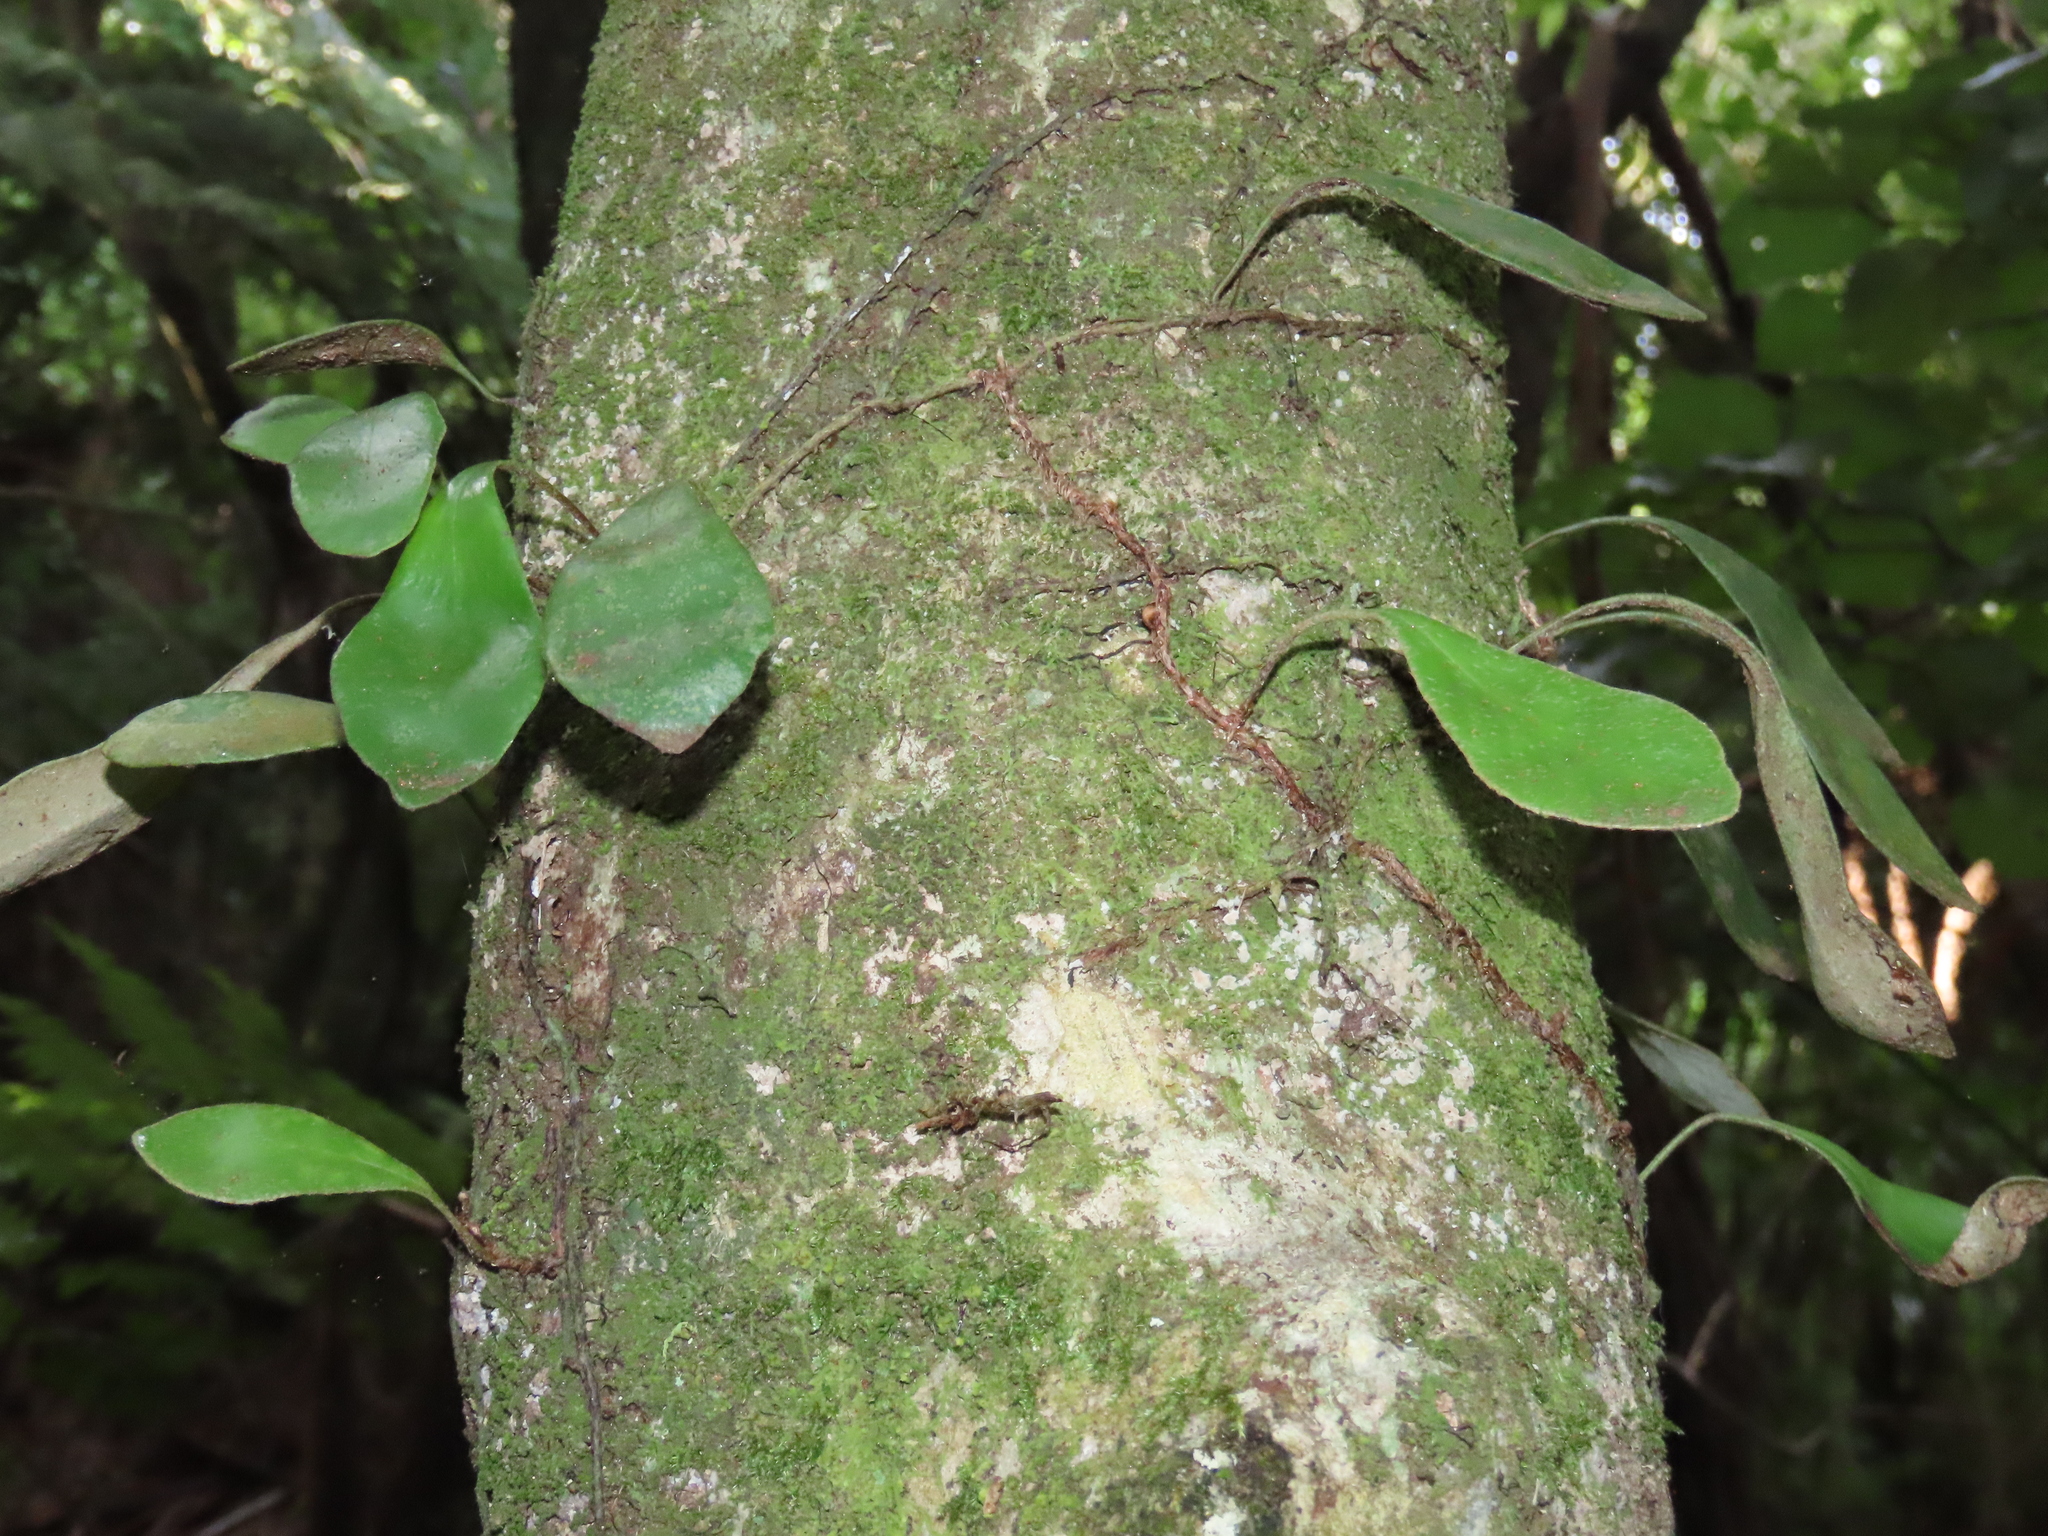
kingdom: Plantae
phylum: Tracheophyta
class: Polypodiopsida
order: Polypodiales
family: Polypodiaceae
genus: Pyrrosia
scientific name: Pyrrosia eleagnifolia
